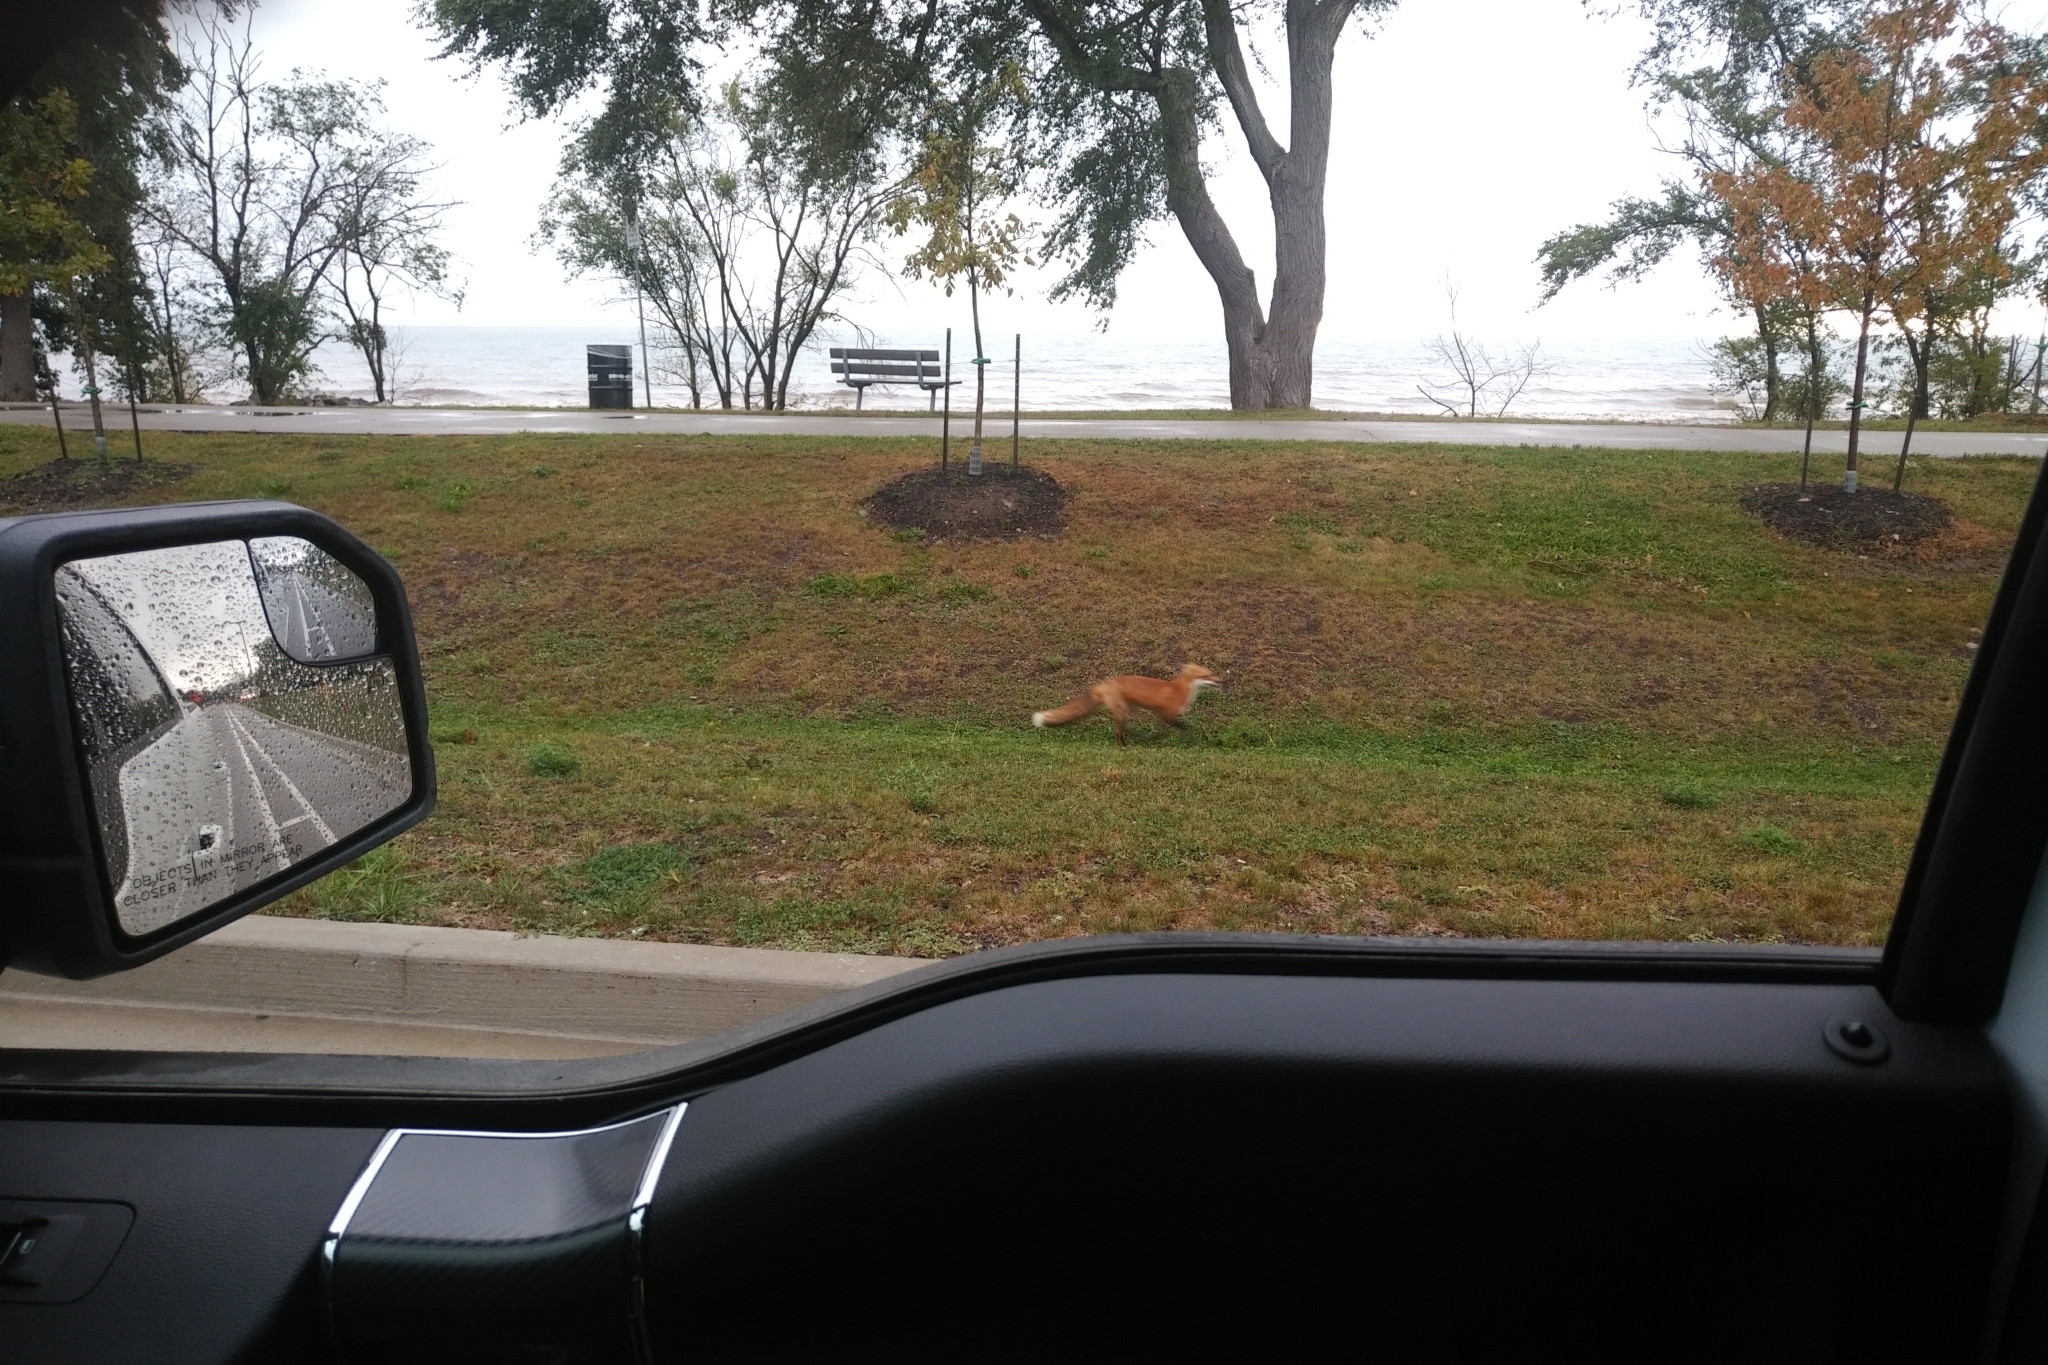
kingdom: Animalia
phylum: Chordata
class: Mammalia
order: Carnivora
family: Canidae
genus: Vulpes
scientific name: Vulpes vulpes
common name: Red fox
